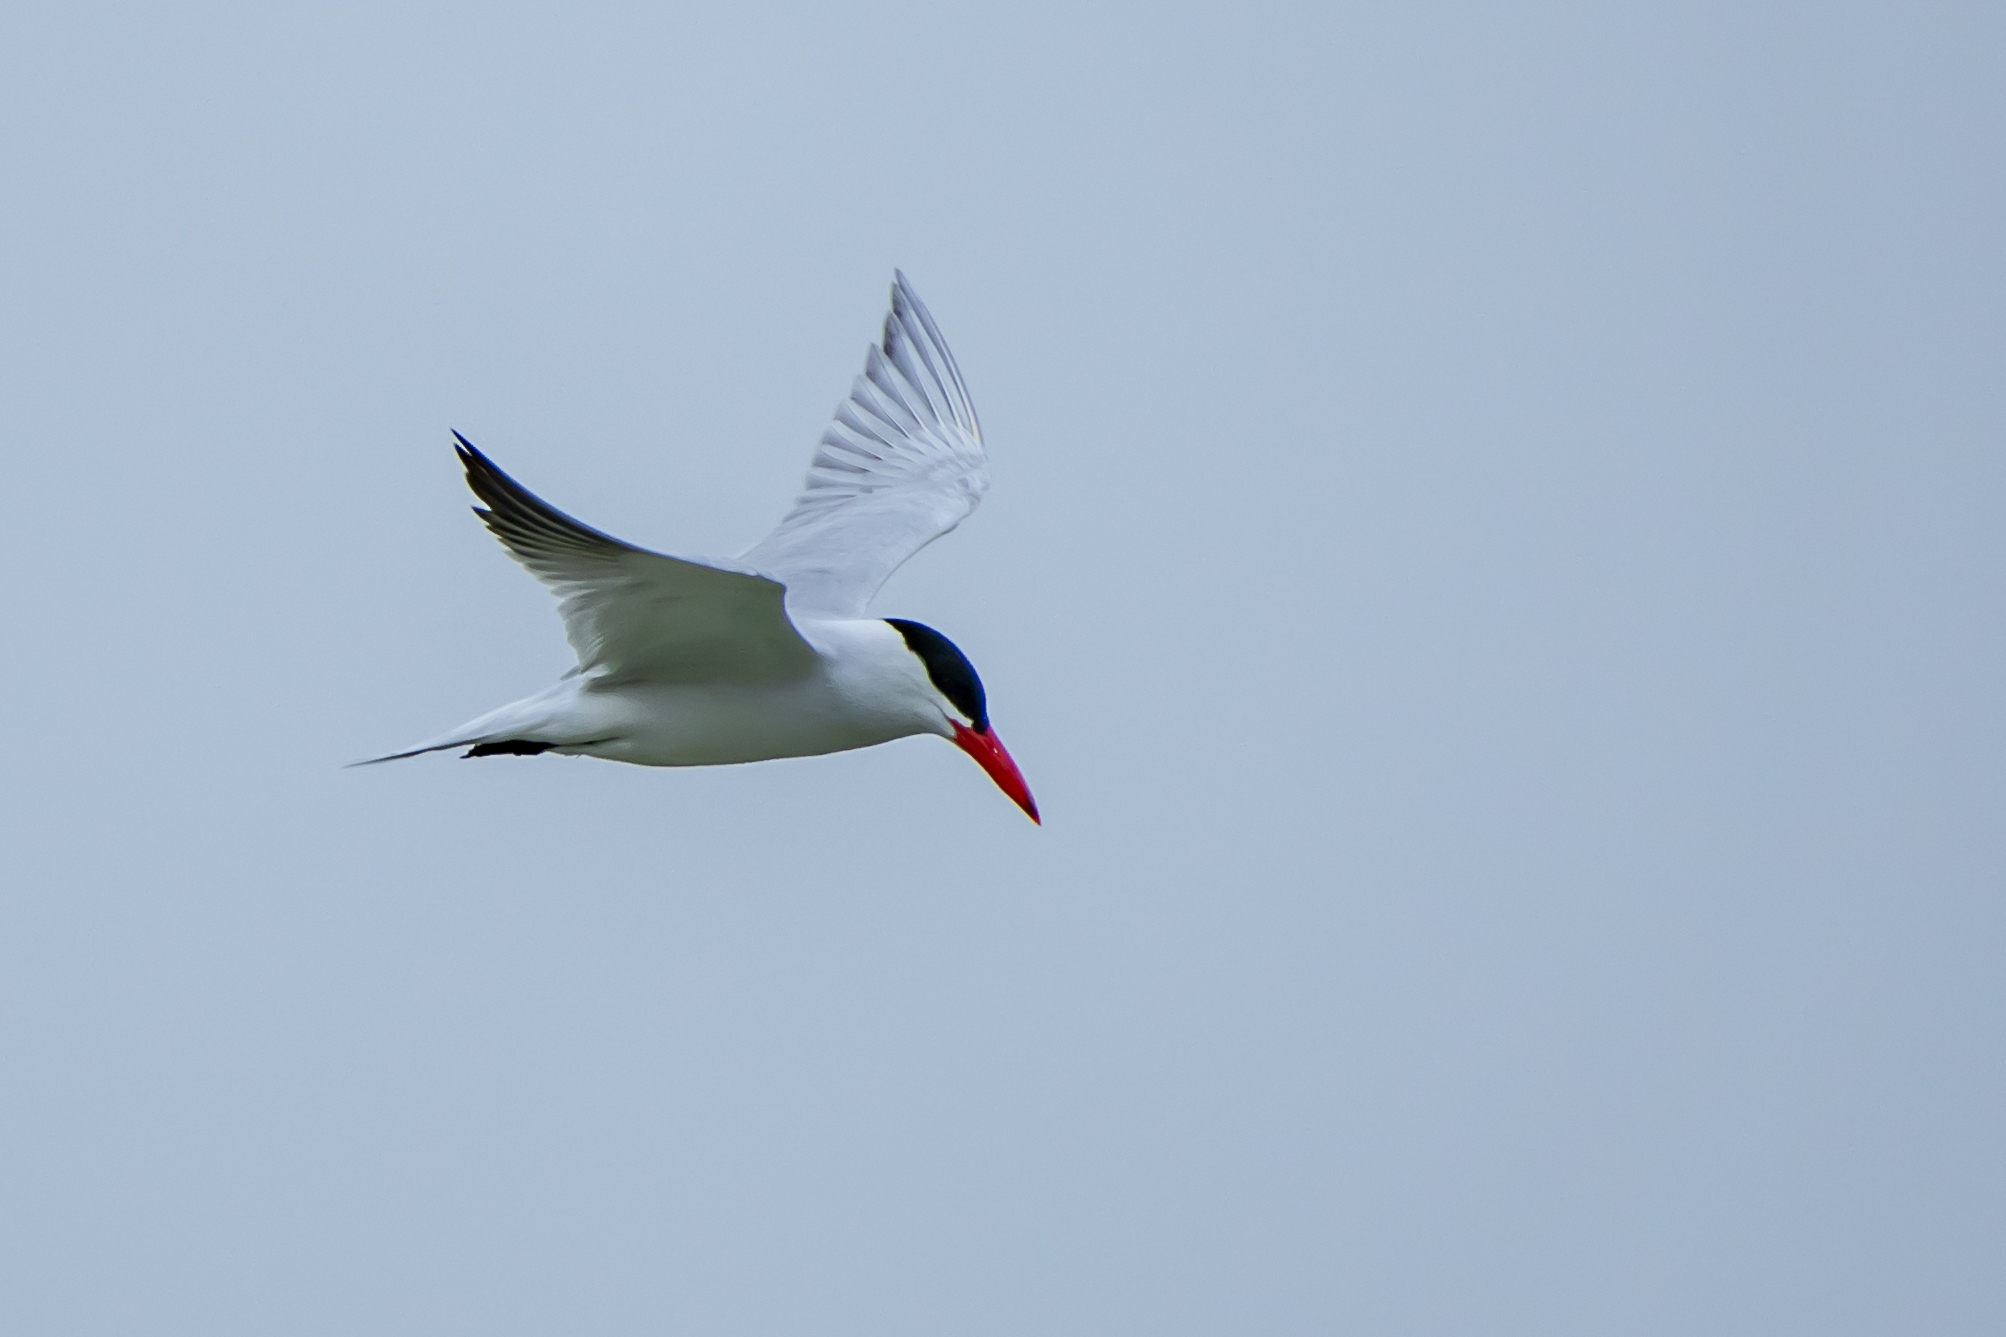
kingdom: Animalia
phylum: Chordata
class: Aves
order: Charadriiformes
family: Laridae
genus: Hydroprogne
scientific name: Hydroprogne caspia
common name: Caspian tern
